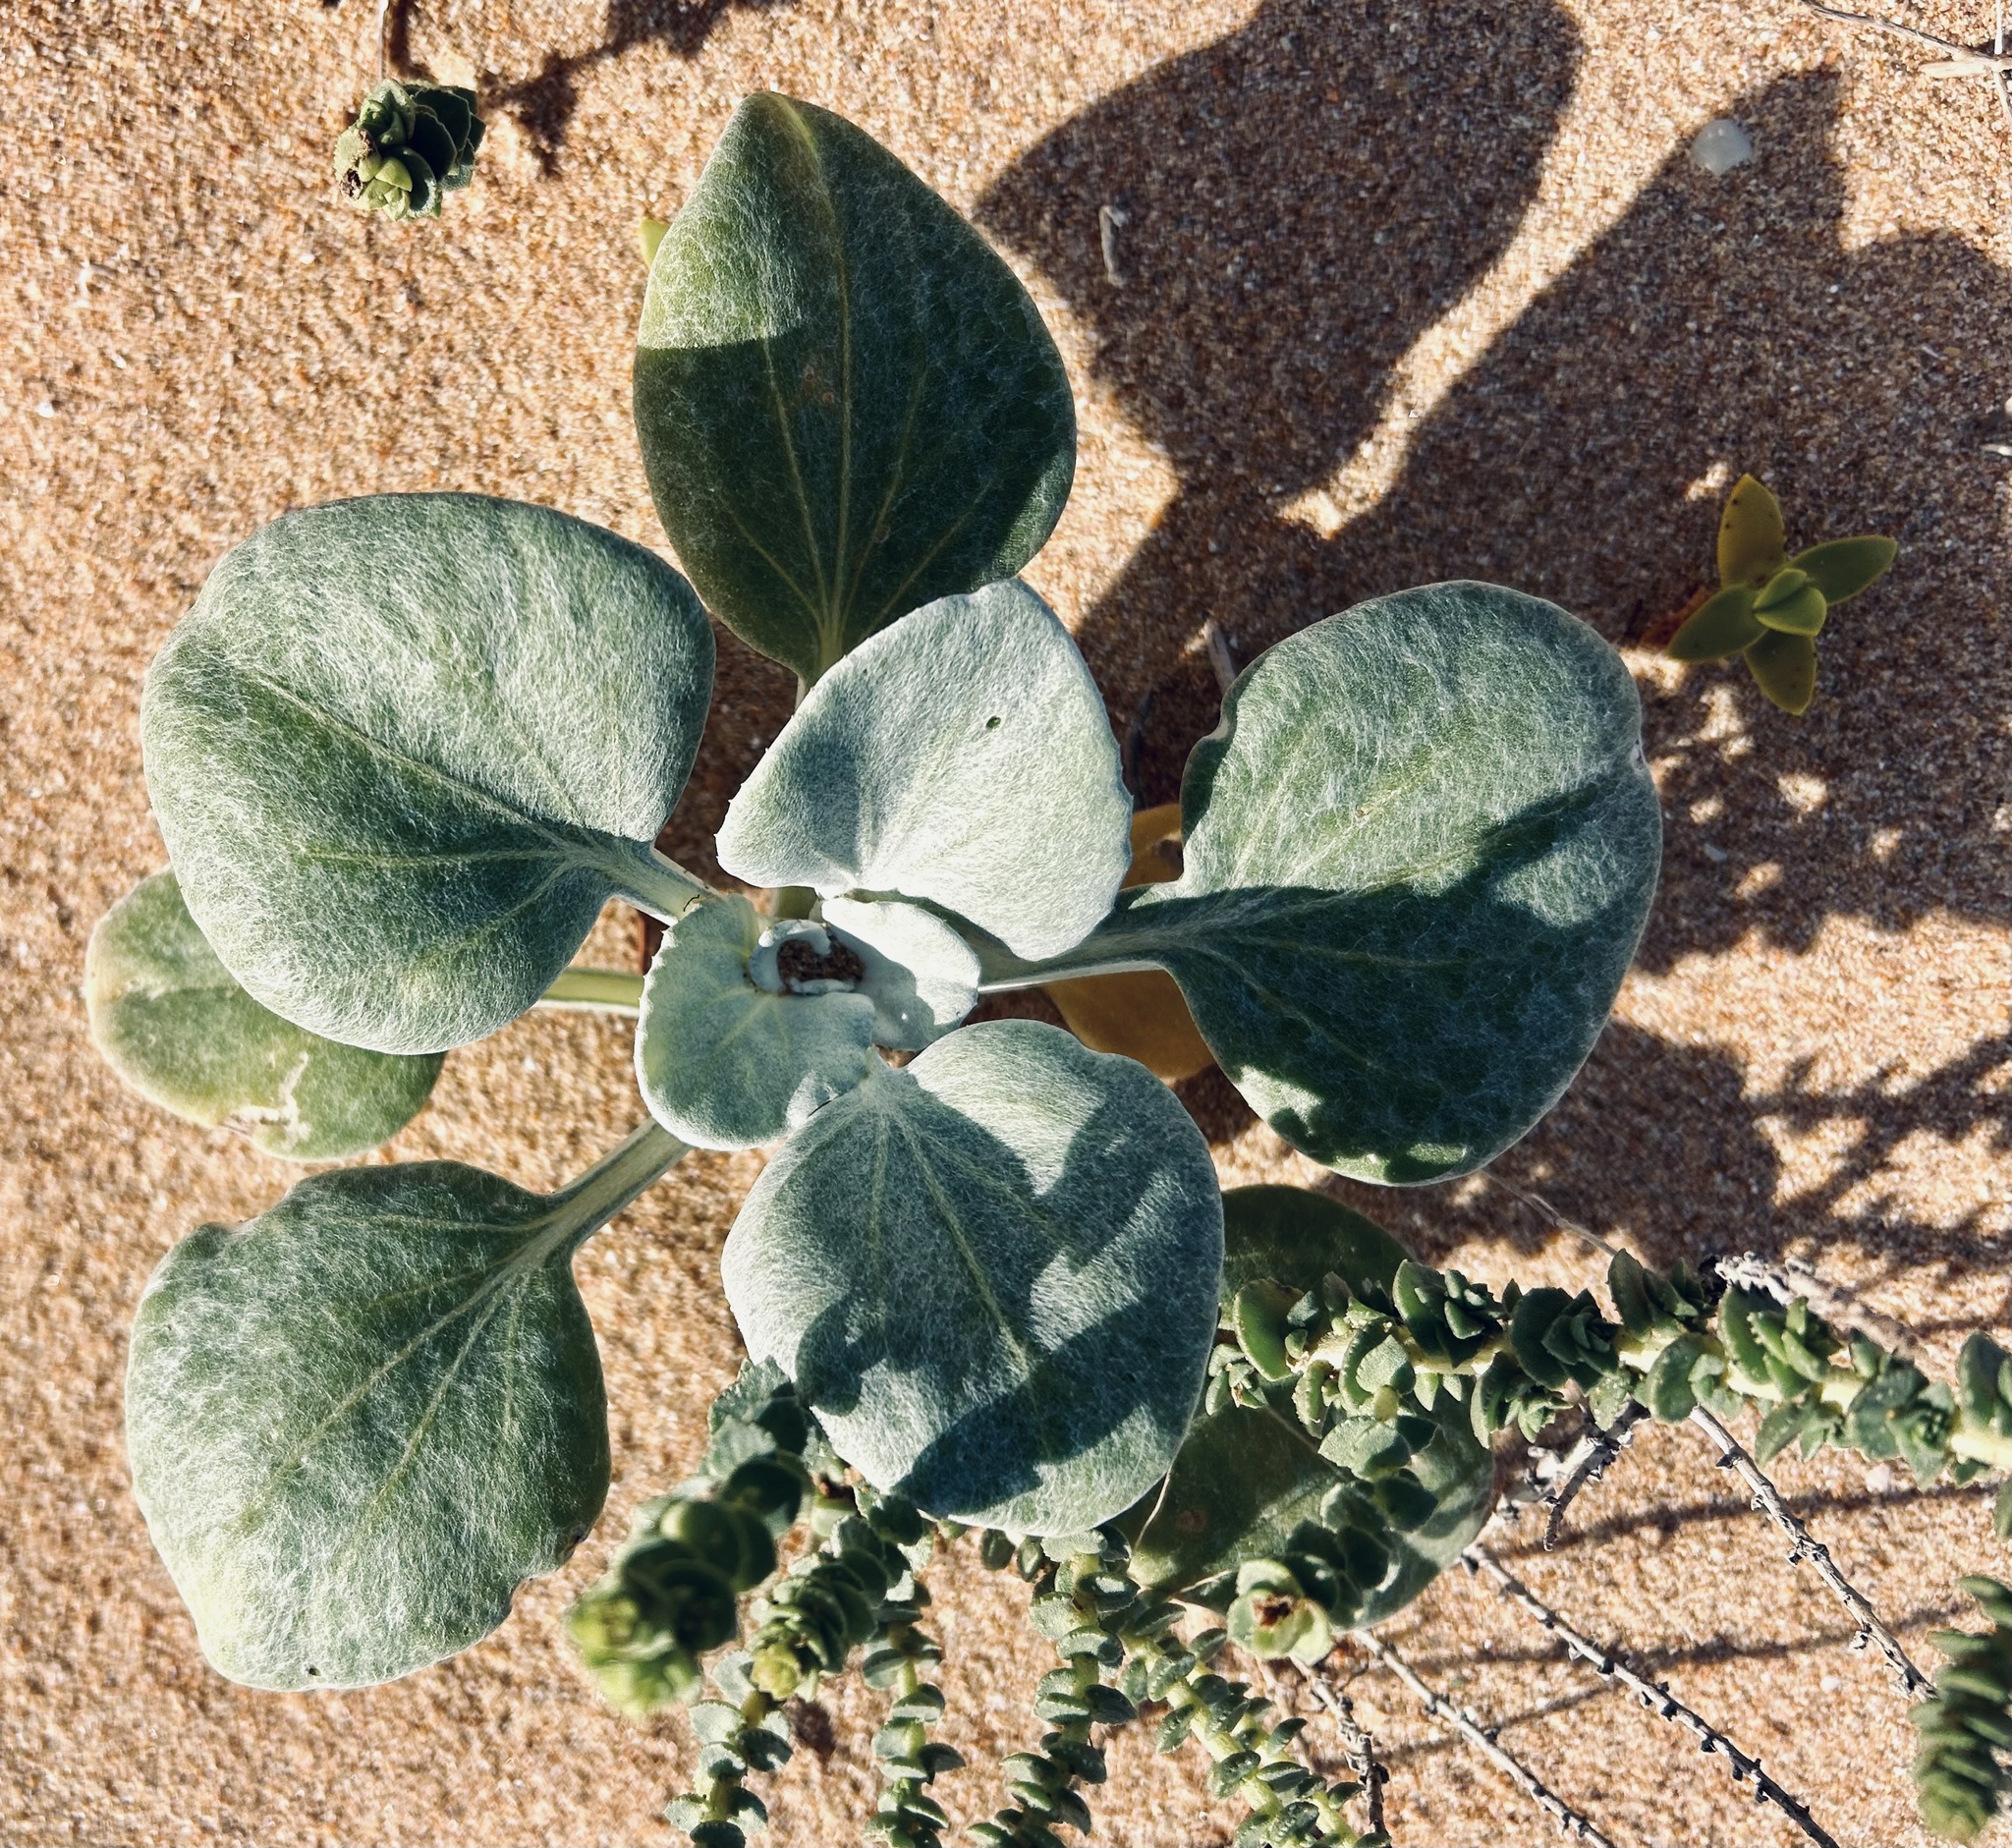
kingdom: Plantae
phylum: Tracheophyta
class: Magnoliopsida
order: Asterales
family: Asteraceae
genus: Arctotheca
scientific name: Arctotheca populifolia
